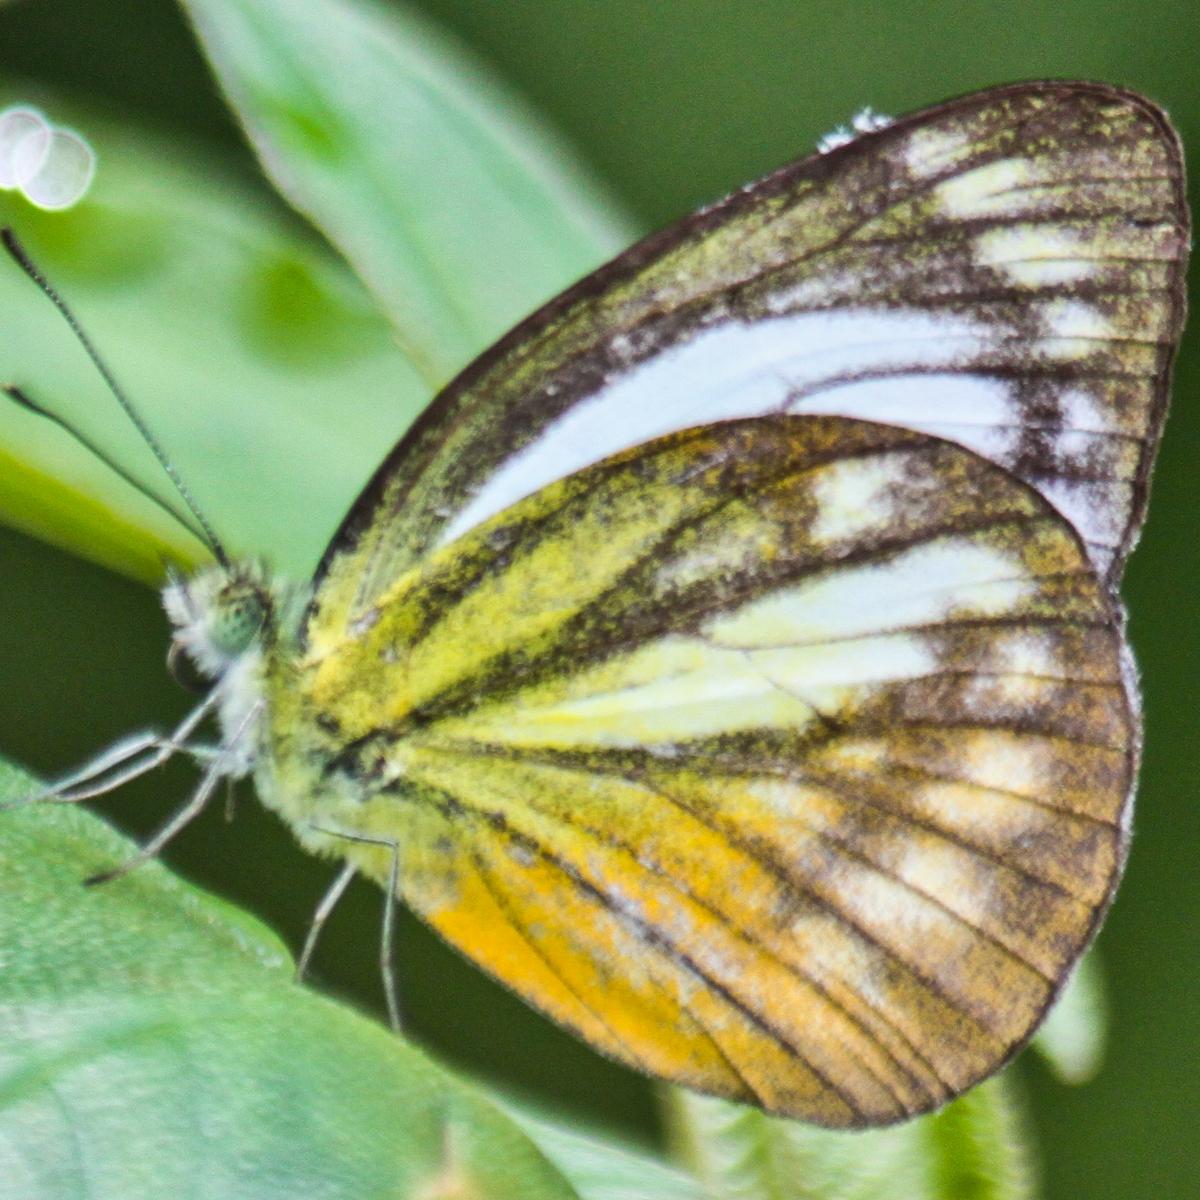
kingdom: Animalia
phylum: Arthropoda
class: Insecta
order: Lepidoptera
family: Pieridae
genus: Cepora
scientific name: Cepora nadina
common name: Lesser gull
